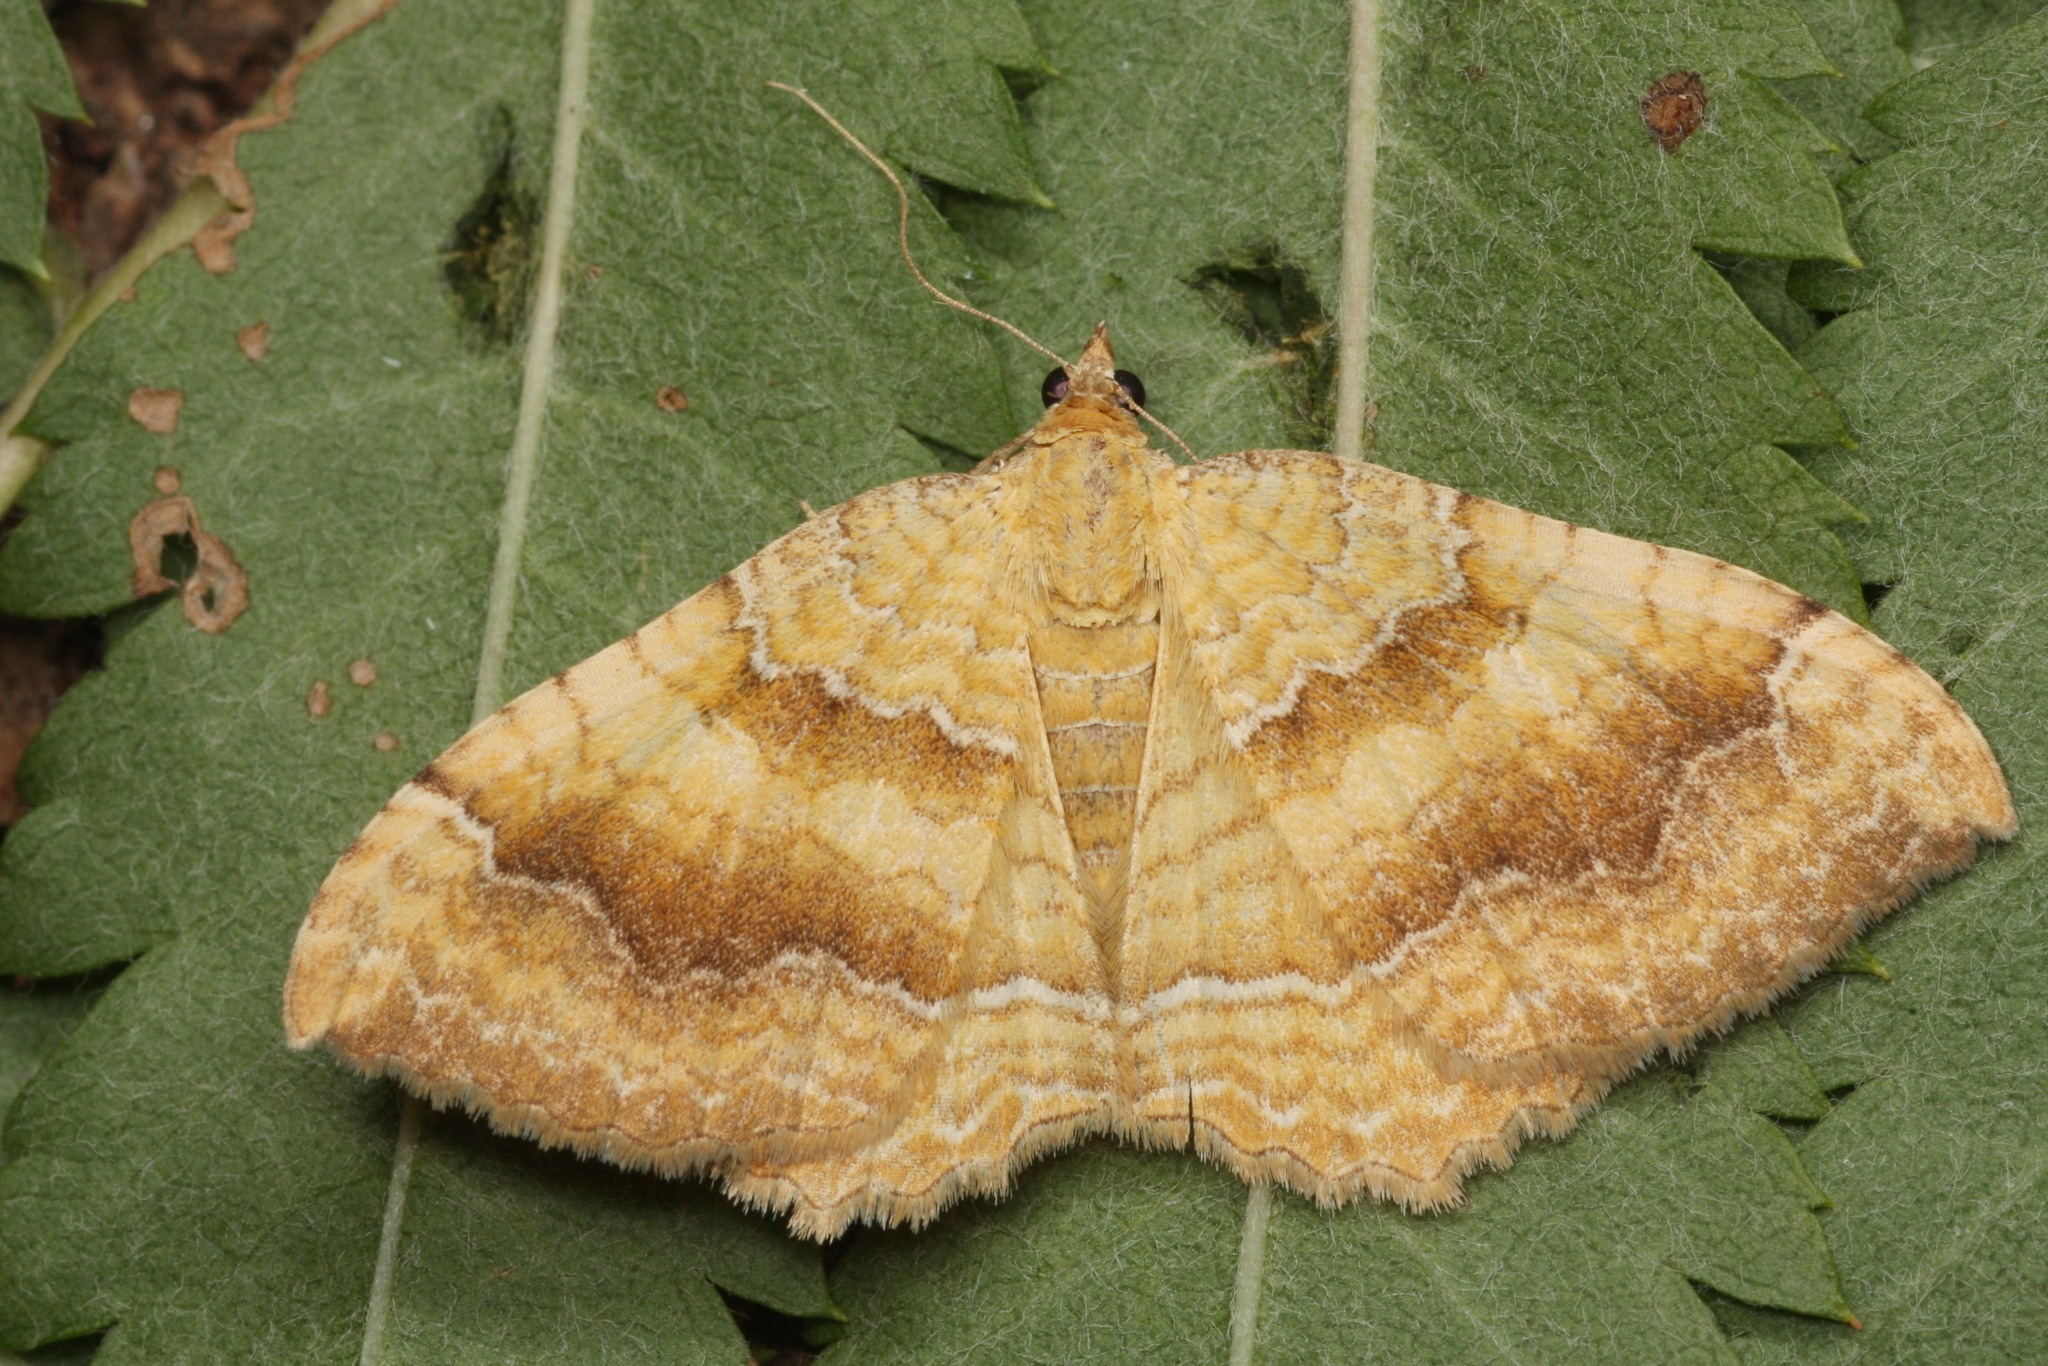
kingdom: Animalia
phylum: Arthropoda
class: Insecta
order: Lepidoptera
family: Geometridae
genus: Camptogramma
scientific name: Camptogramma bilineata
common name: Yellow shell
